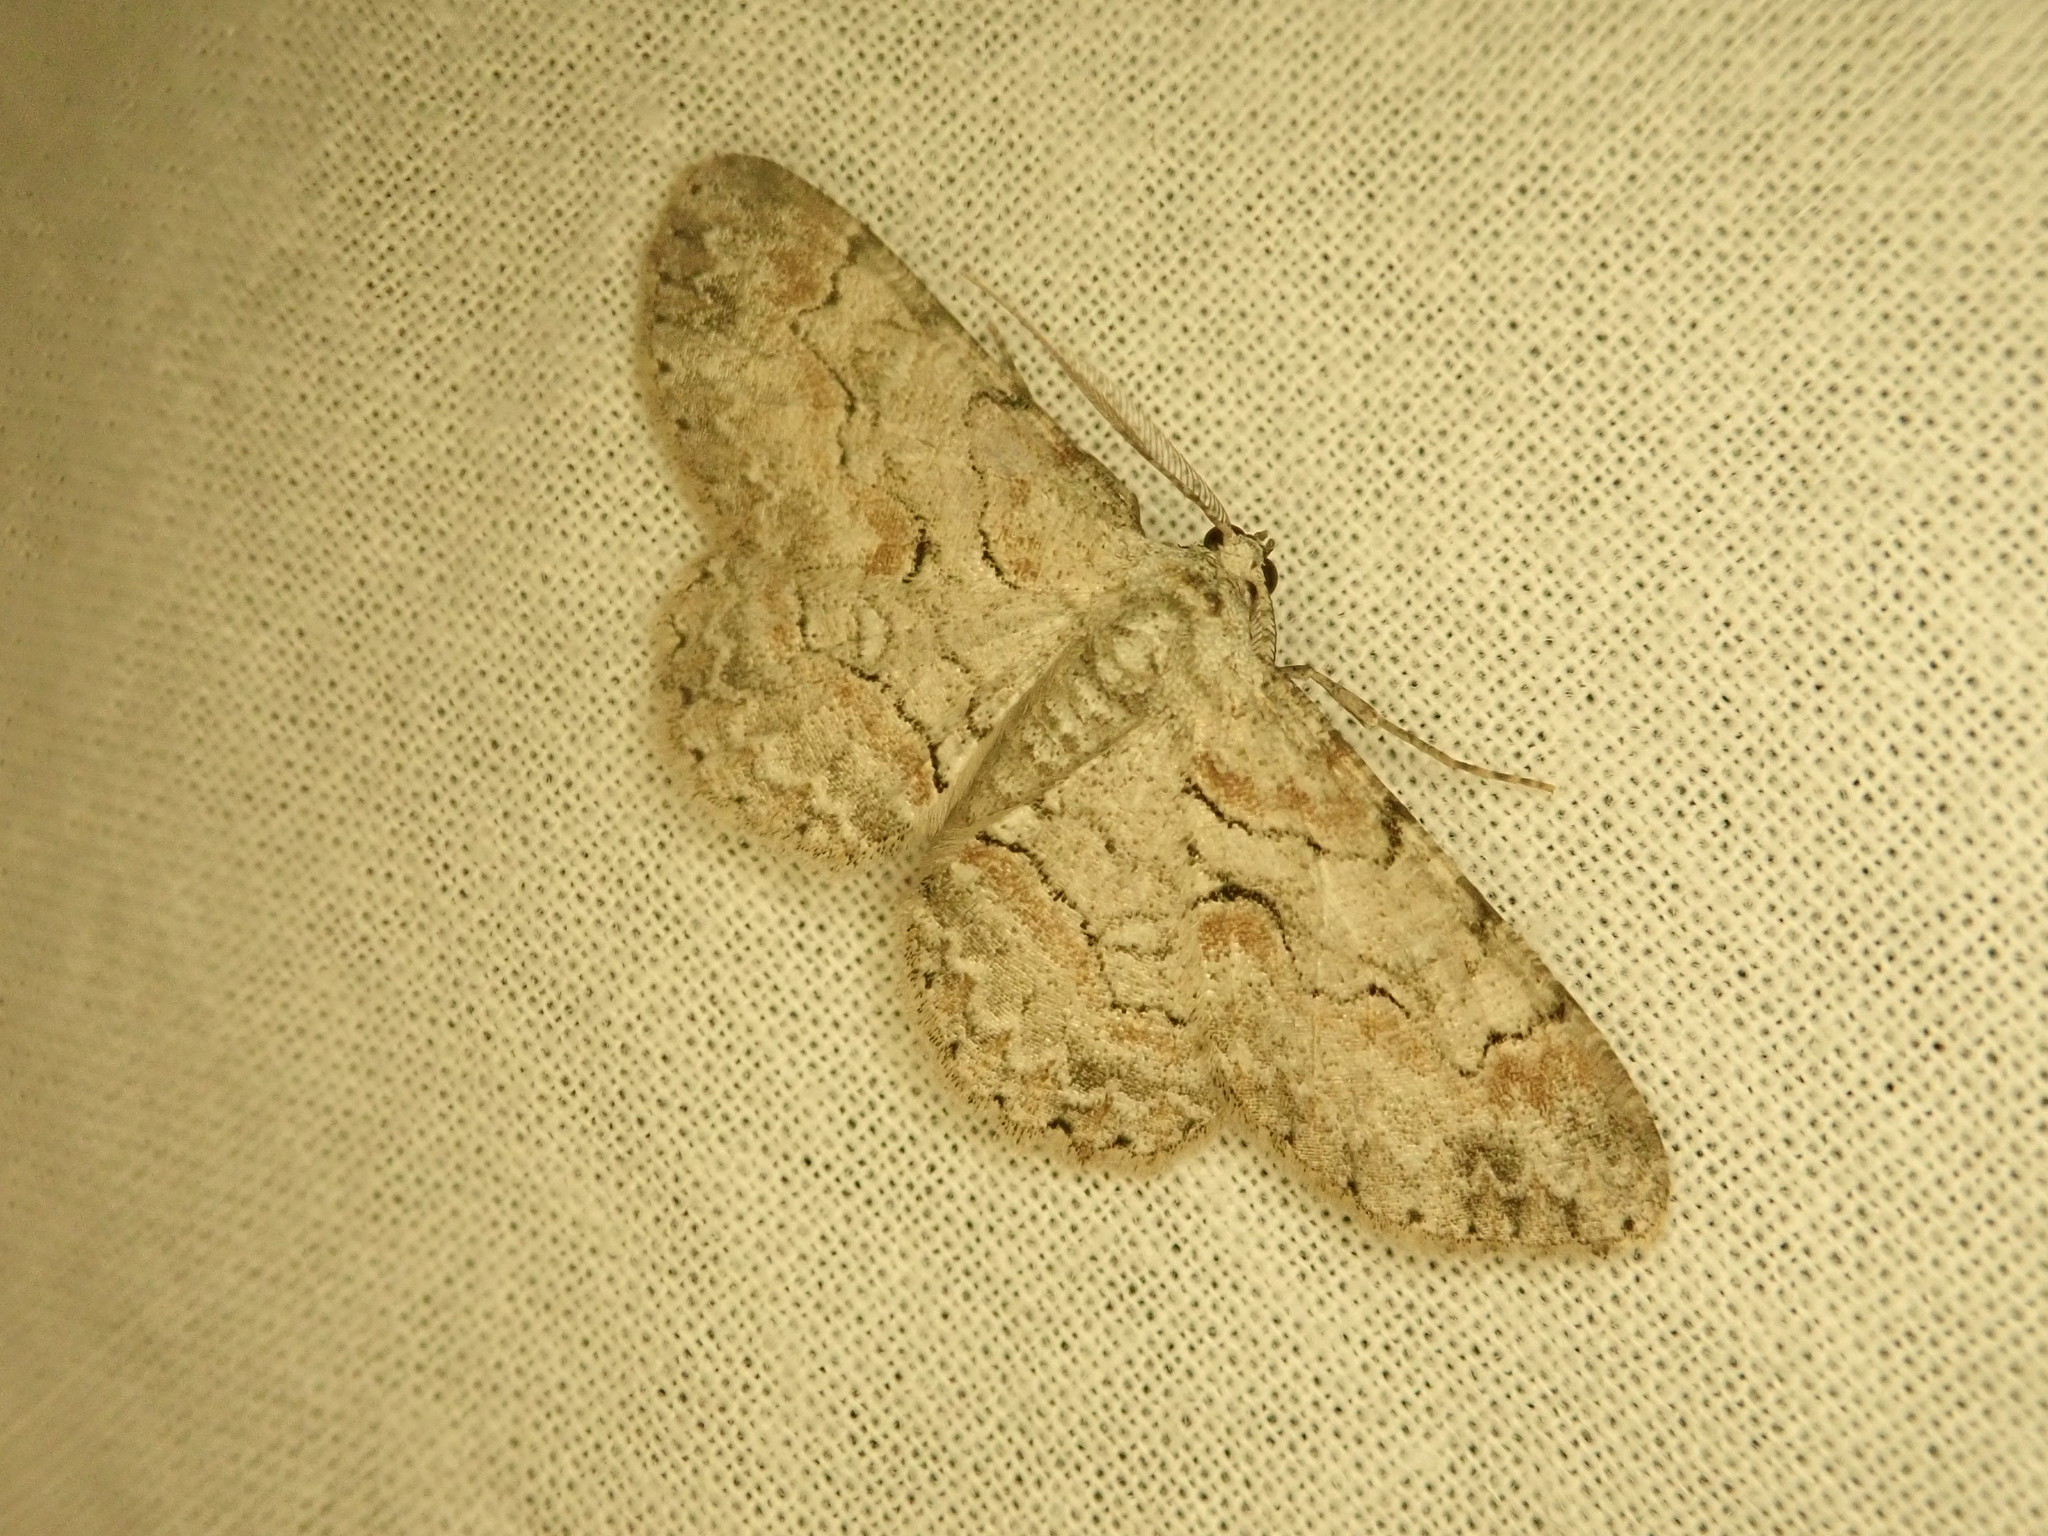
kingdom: Animalia
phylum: Arthropoda
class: Insecta
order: Lepidoptera
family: Geometridae
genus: Iridopsis
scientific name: Iridopsis defectaria
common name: Brown-shaded gray
